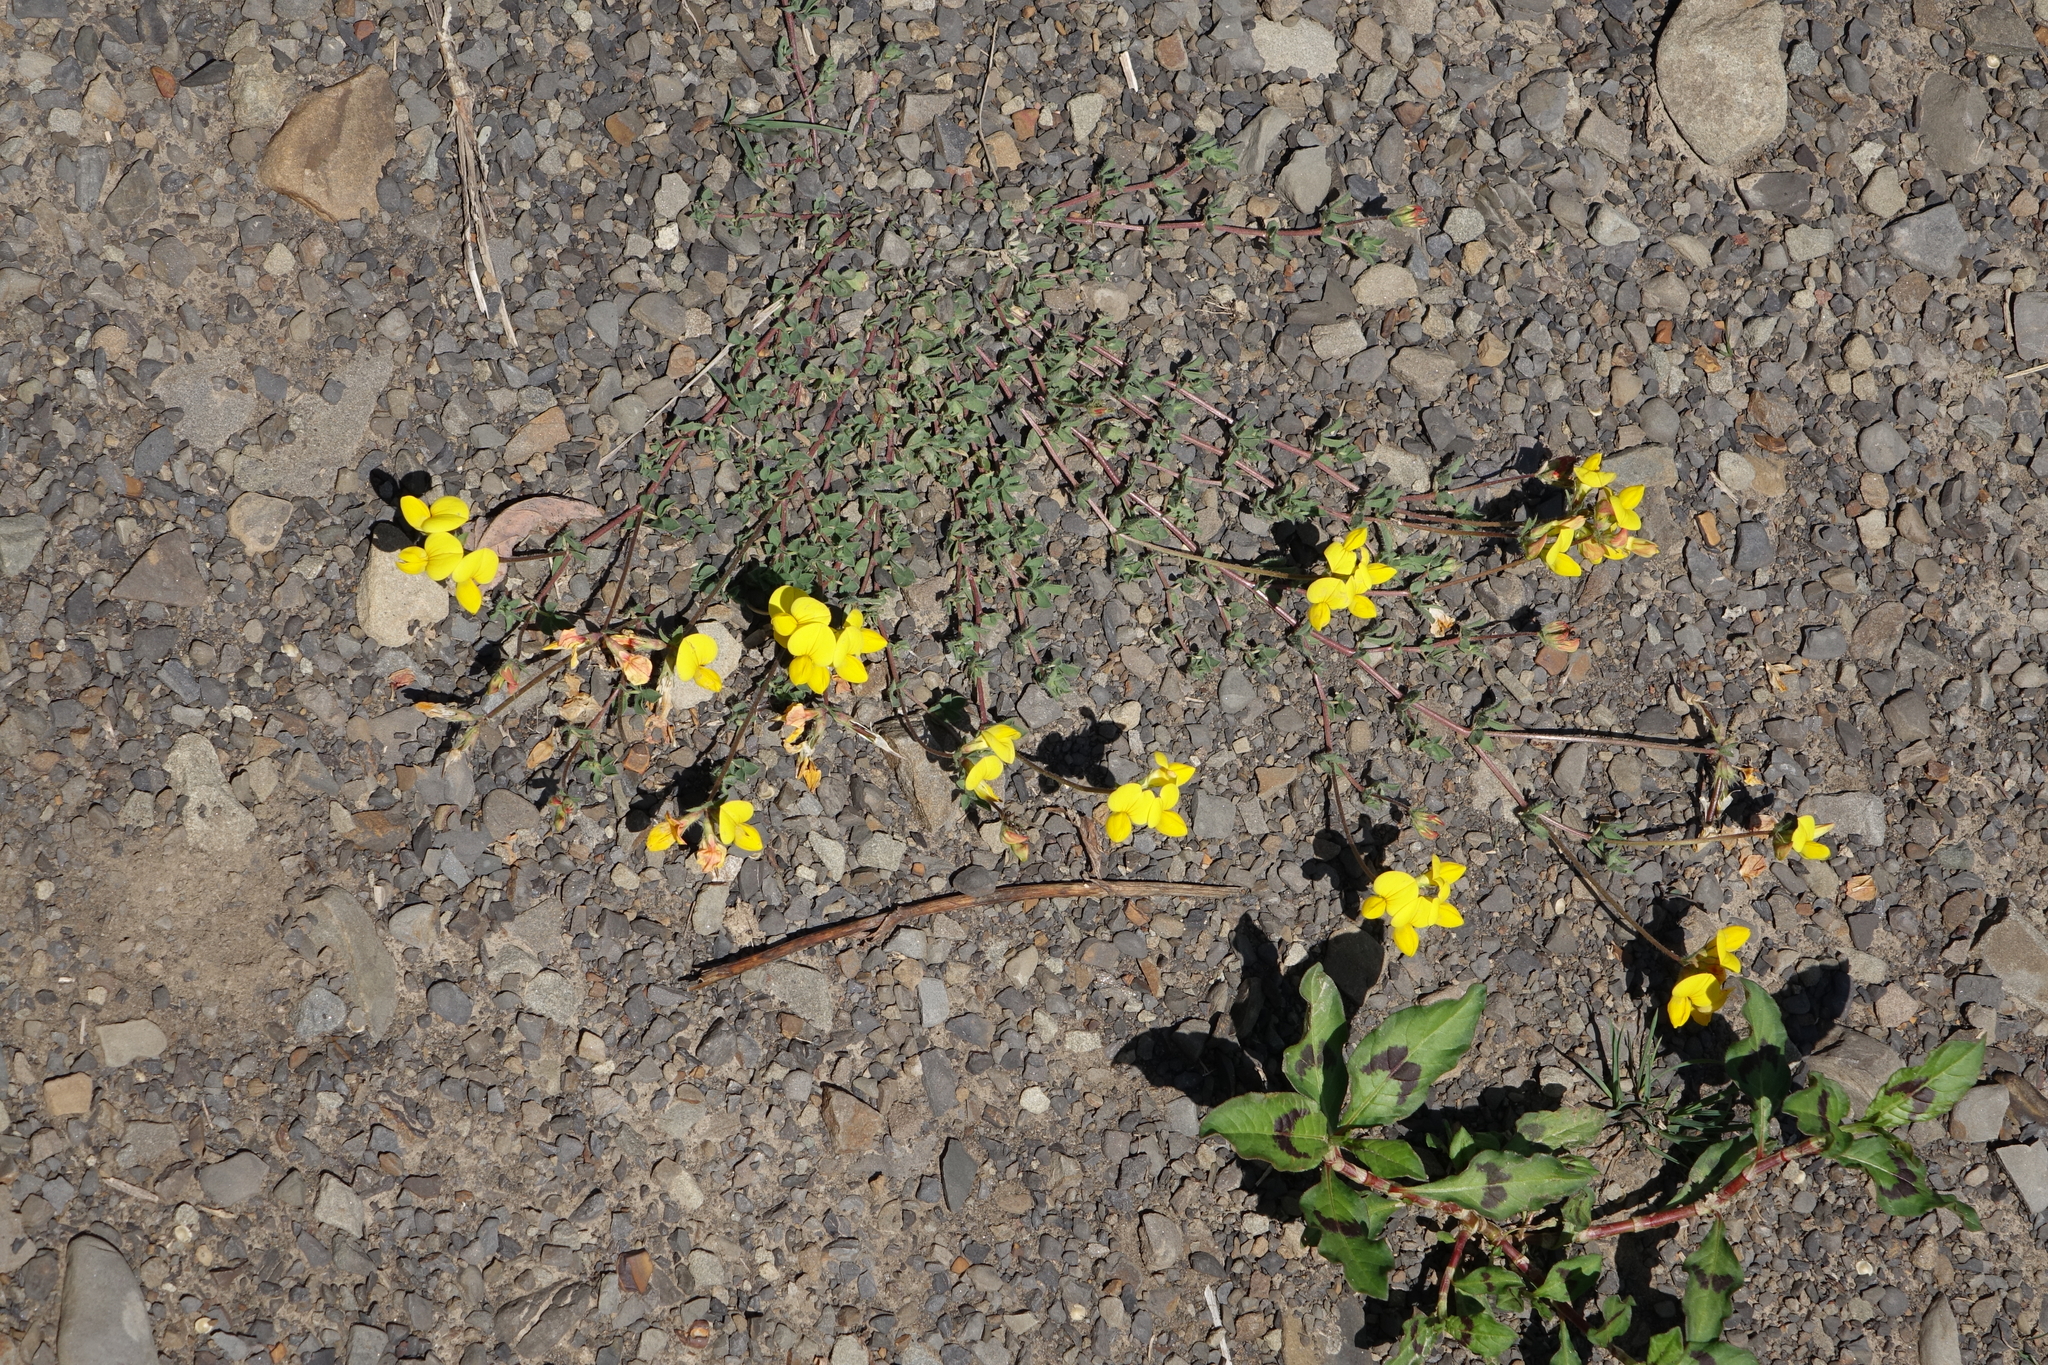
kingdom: Plantae
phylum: Tracheophyta
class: Magnoliopsida
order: Fabales
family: Fabaceae
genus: Lotus
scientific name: Lotus corniculatus
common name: Common bird's-foot-trefoil
